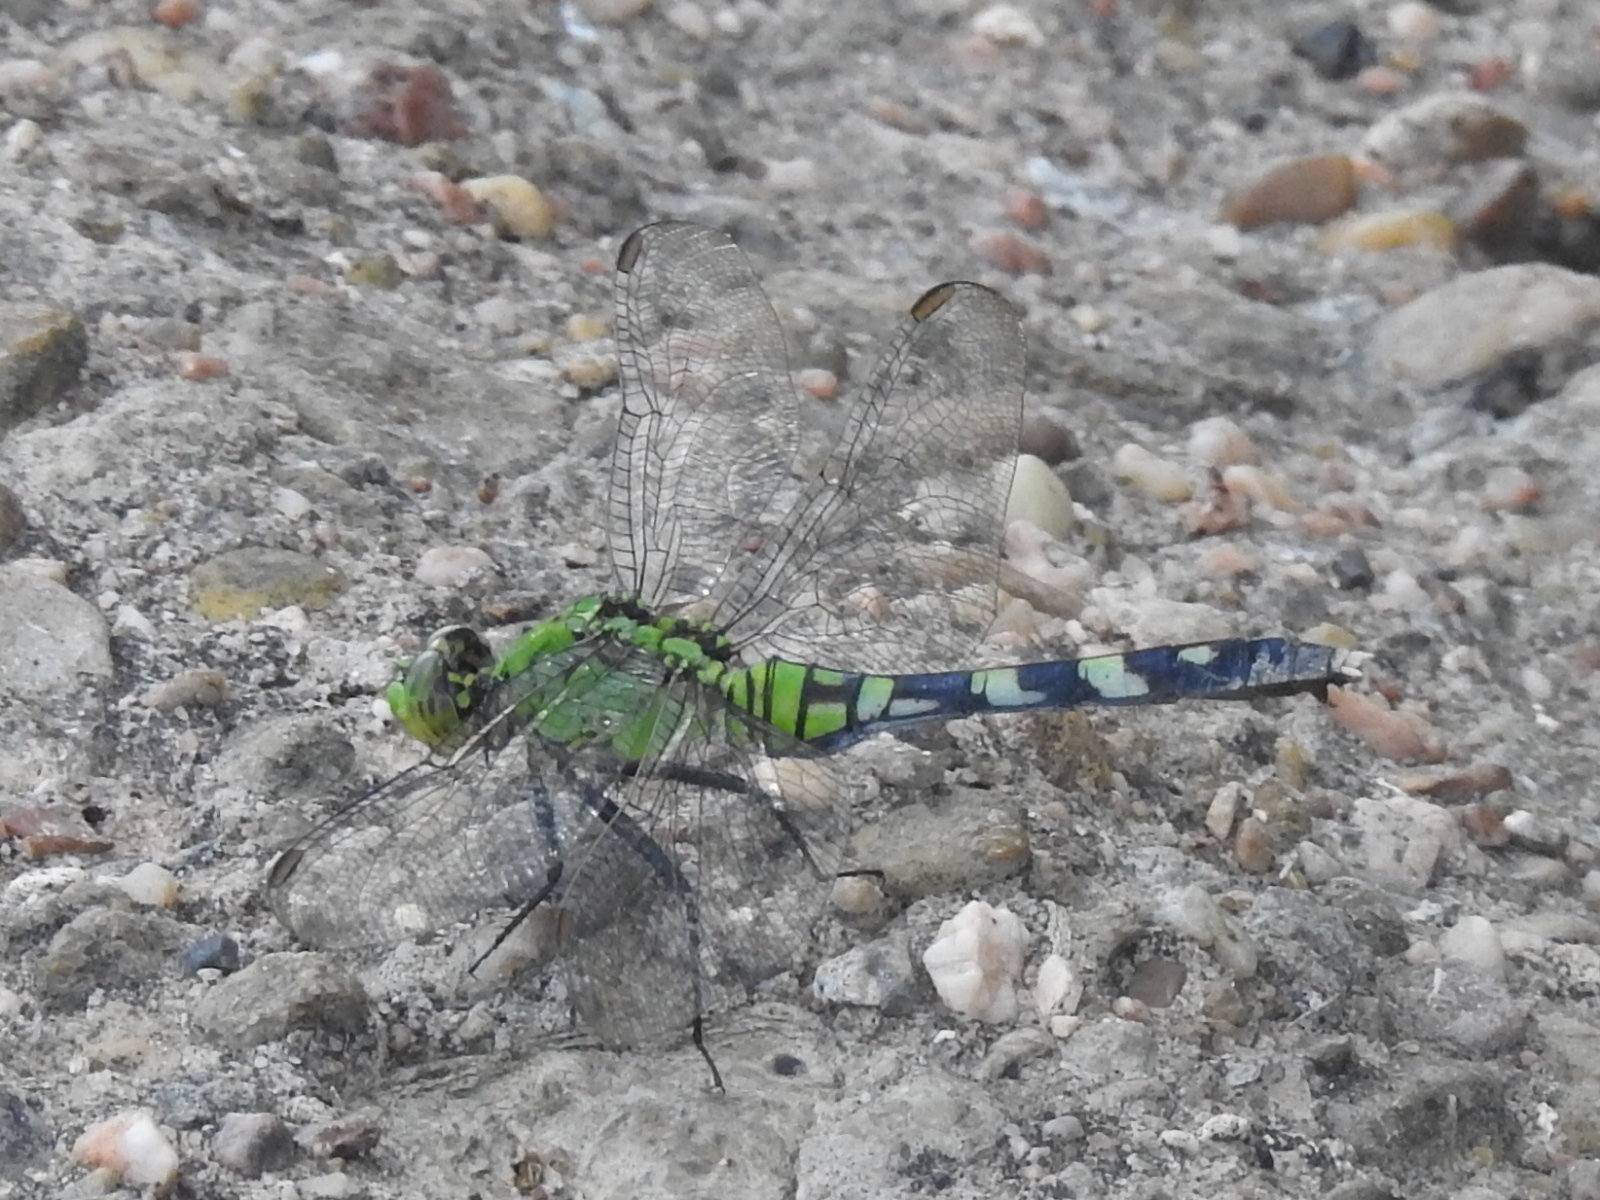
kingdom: Animalia
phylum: Arthropoda
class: Insecta
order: Odonata
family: Libellulidae
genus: Erythemis
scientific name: Erythemis simplicicollis
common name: Eastern pondhawk
